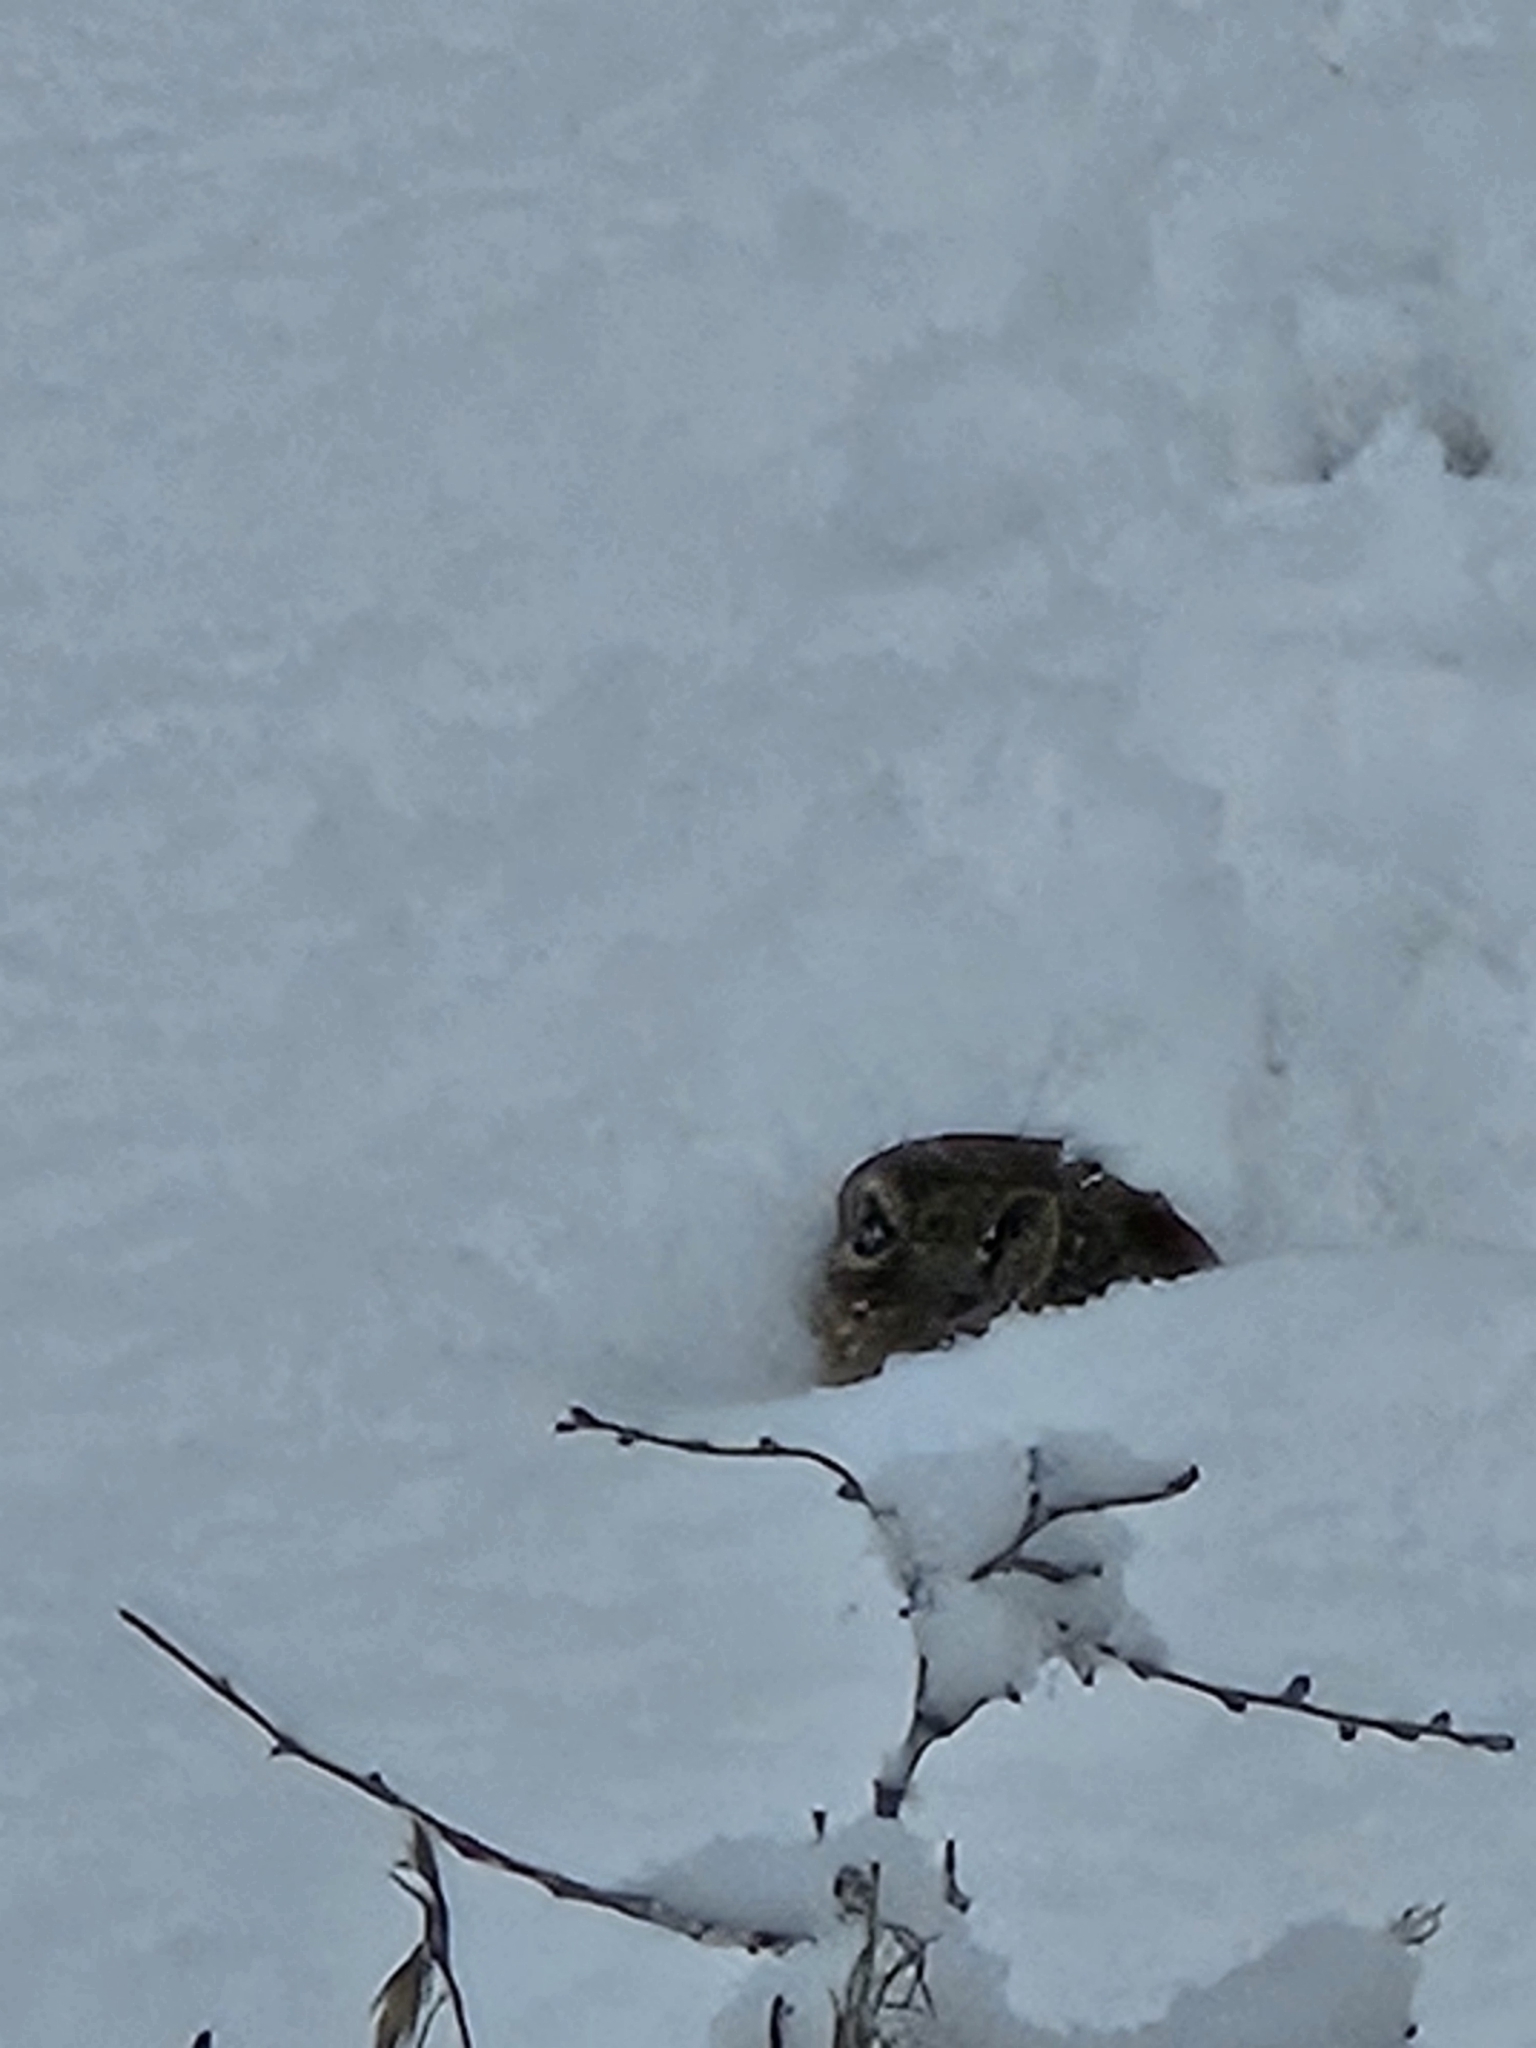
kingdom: Animalia
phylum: Chordata
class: Mammalia
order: Rodentia
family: Sciuridae
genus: Callospermophilus
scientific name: Callospermophilus lateralis
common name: Golden-mantled ground squirrel
